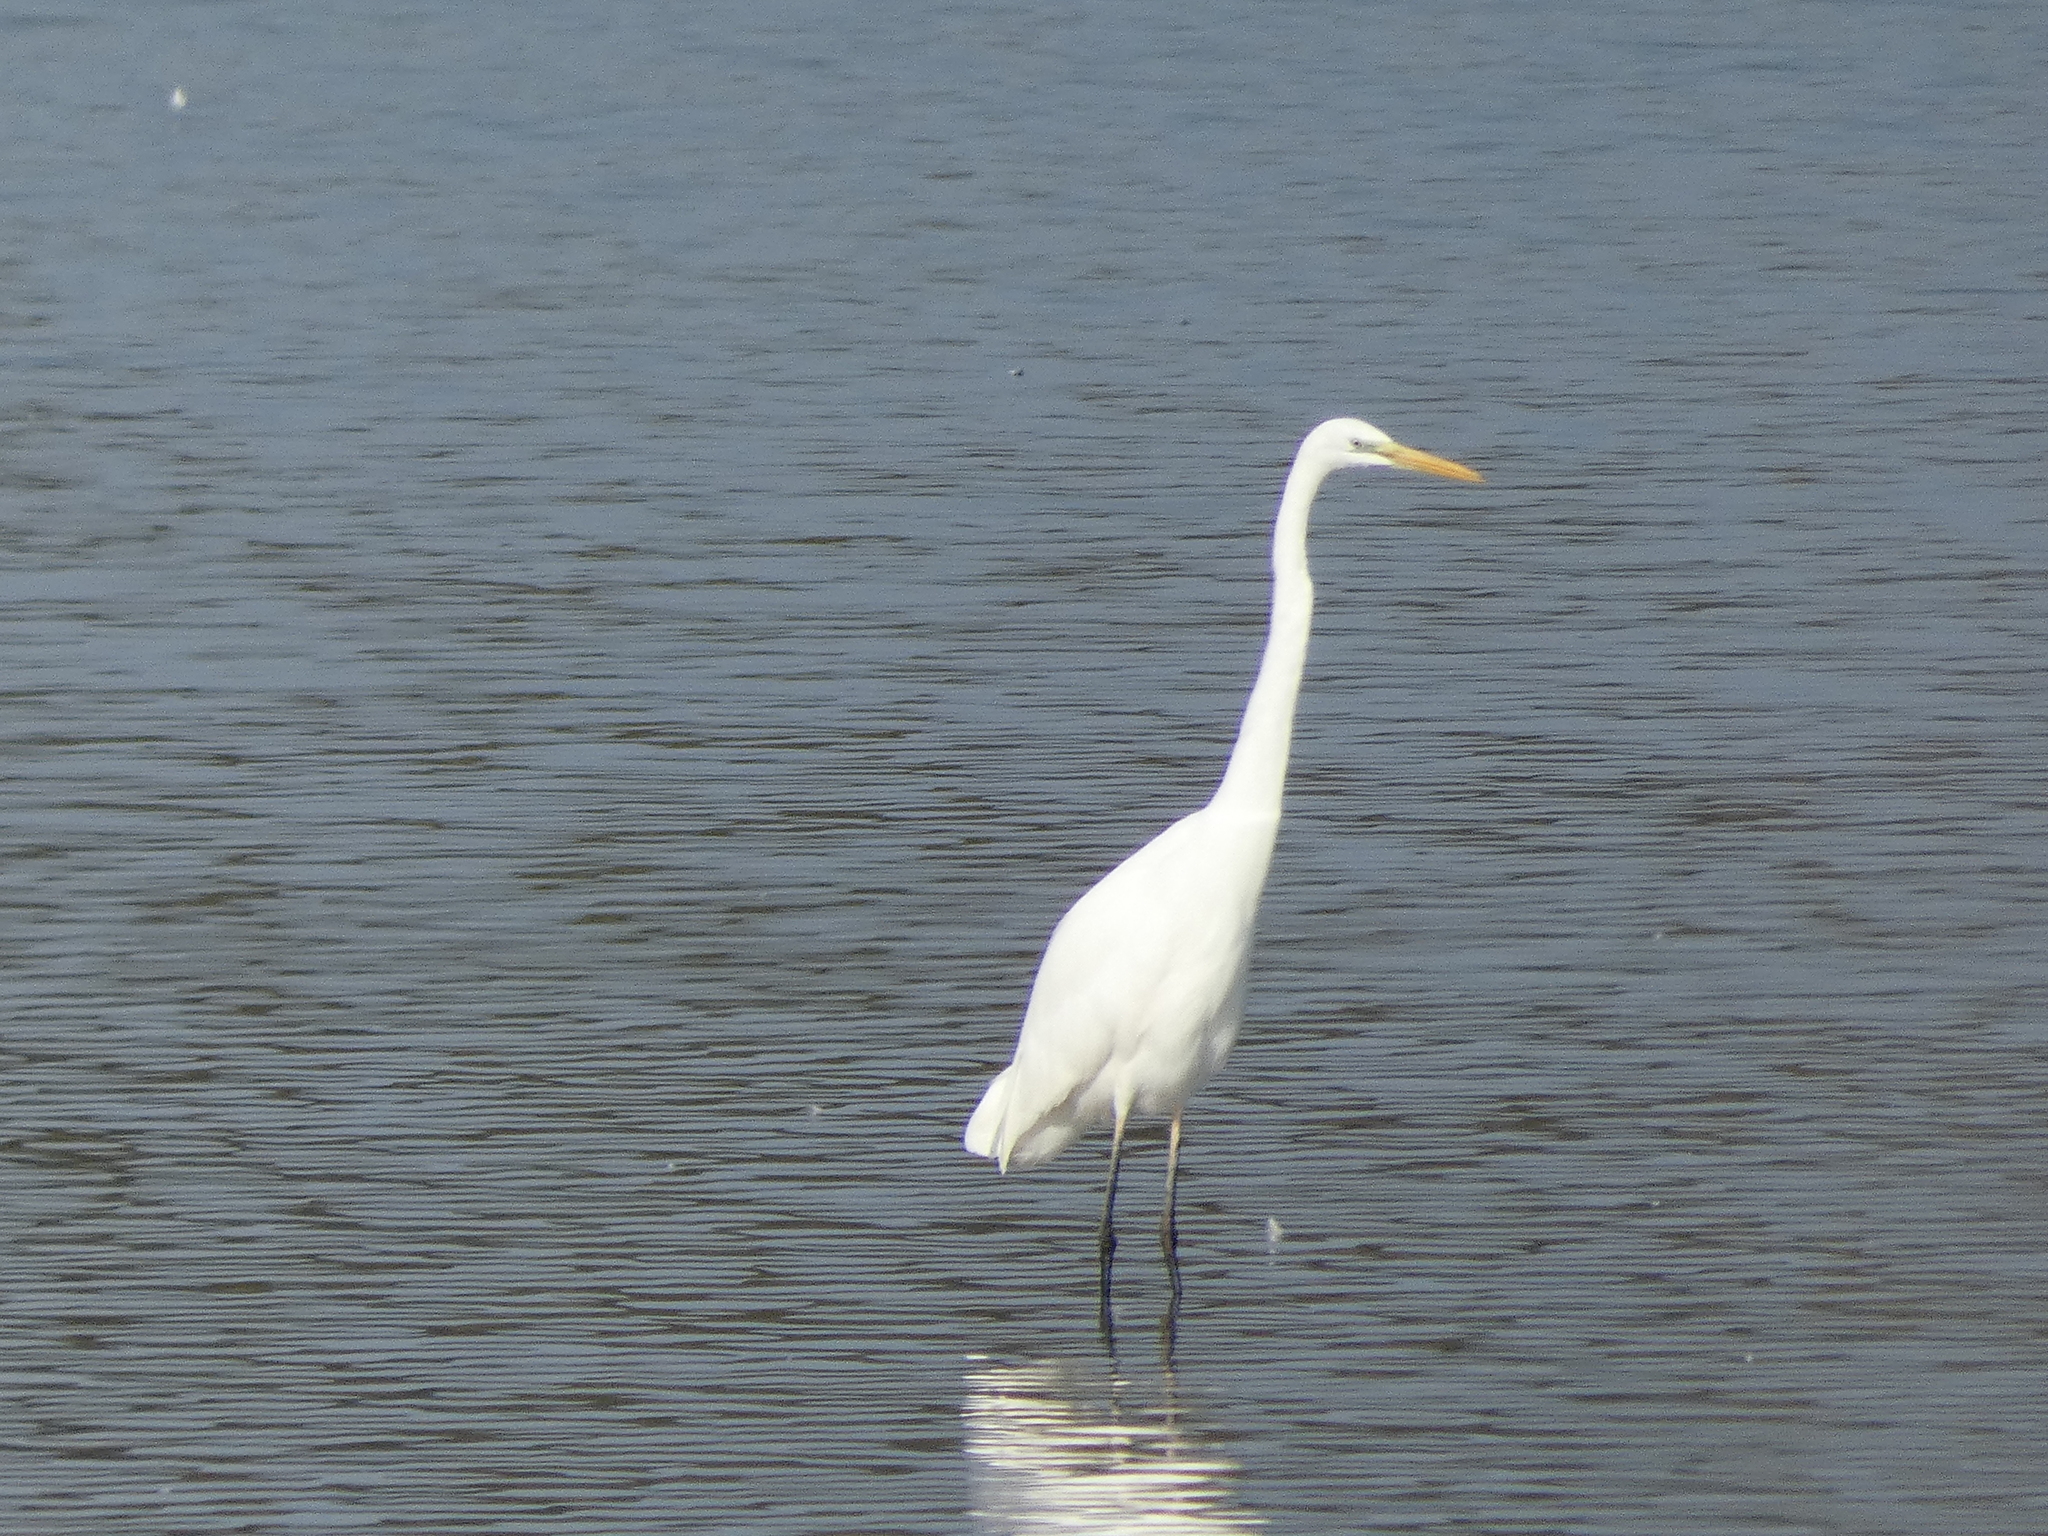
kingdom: Animalia
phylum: Chordata
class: Aves
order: Pelecaniformes
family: Ardeidae
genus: Ardea
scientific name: Ardea alba
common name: Great egret
